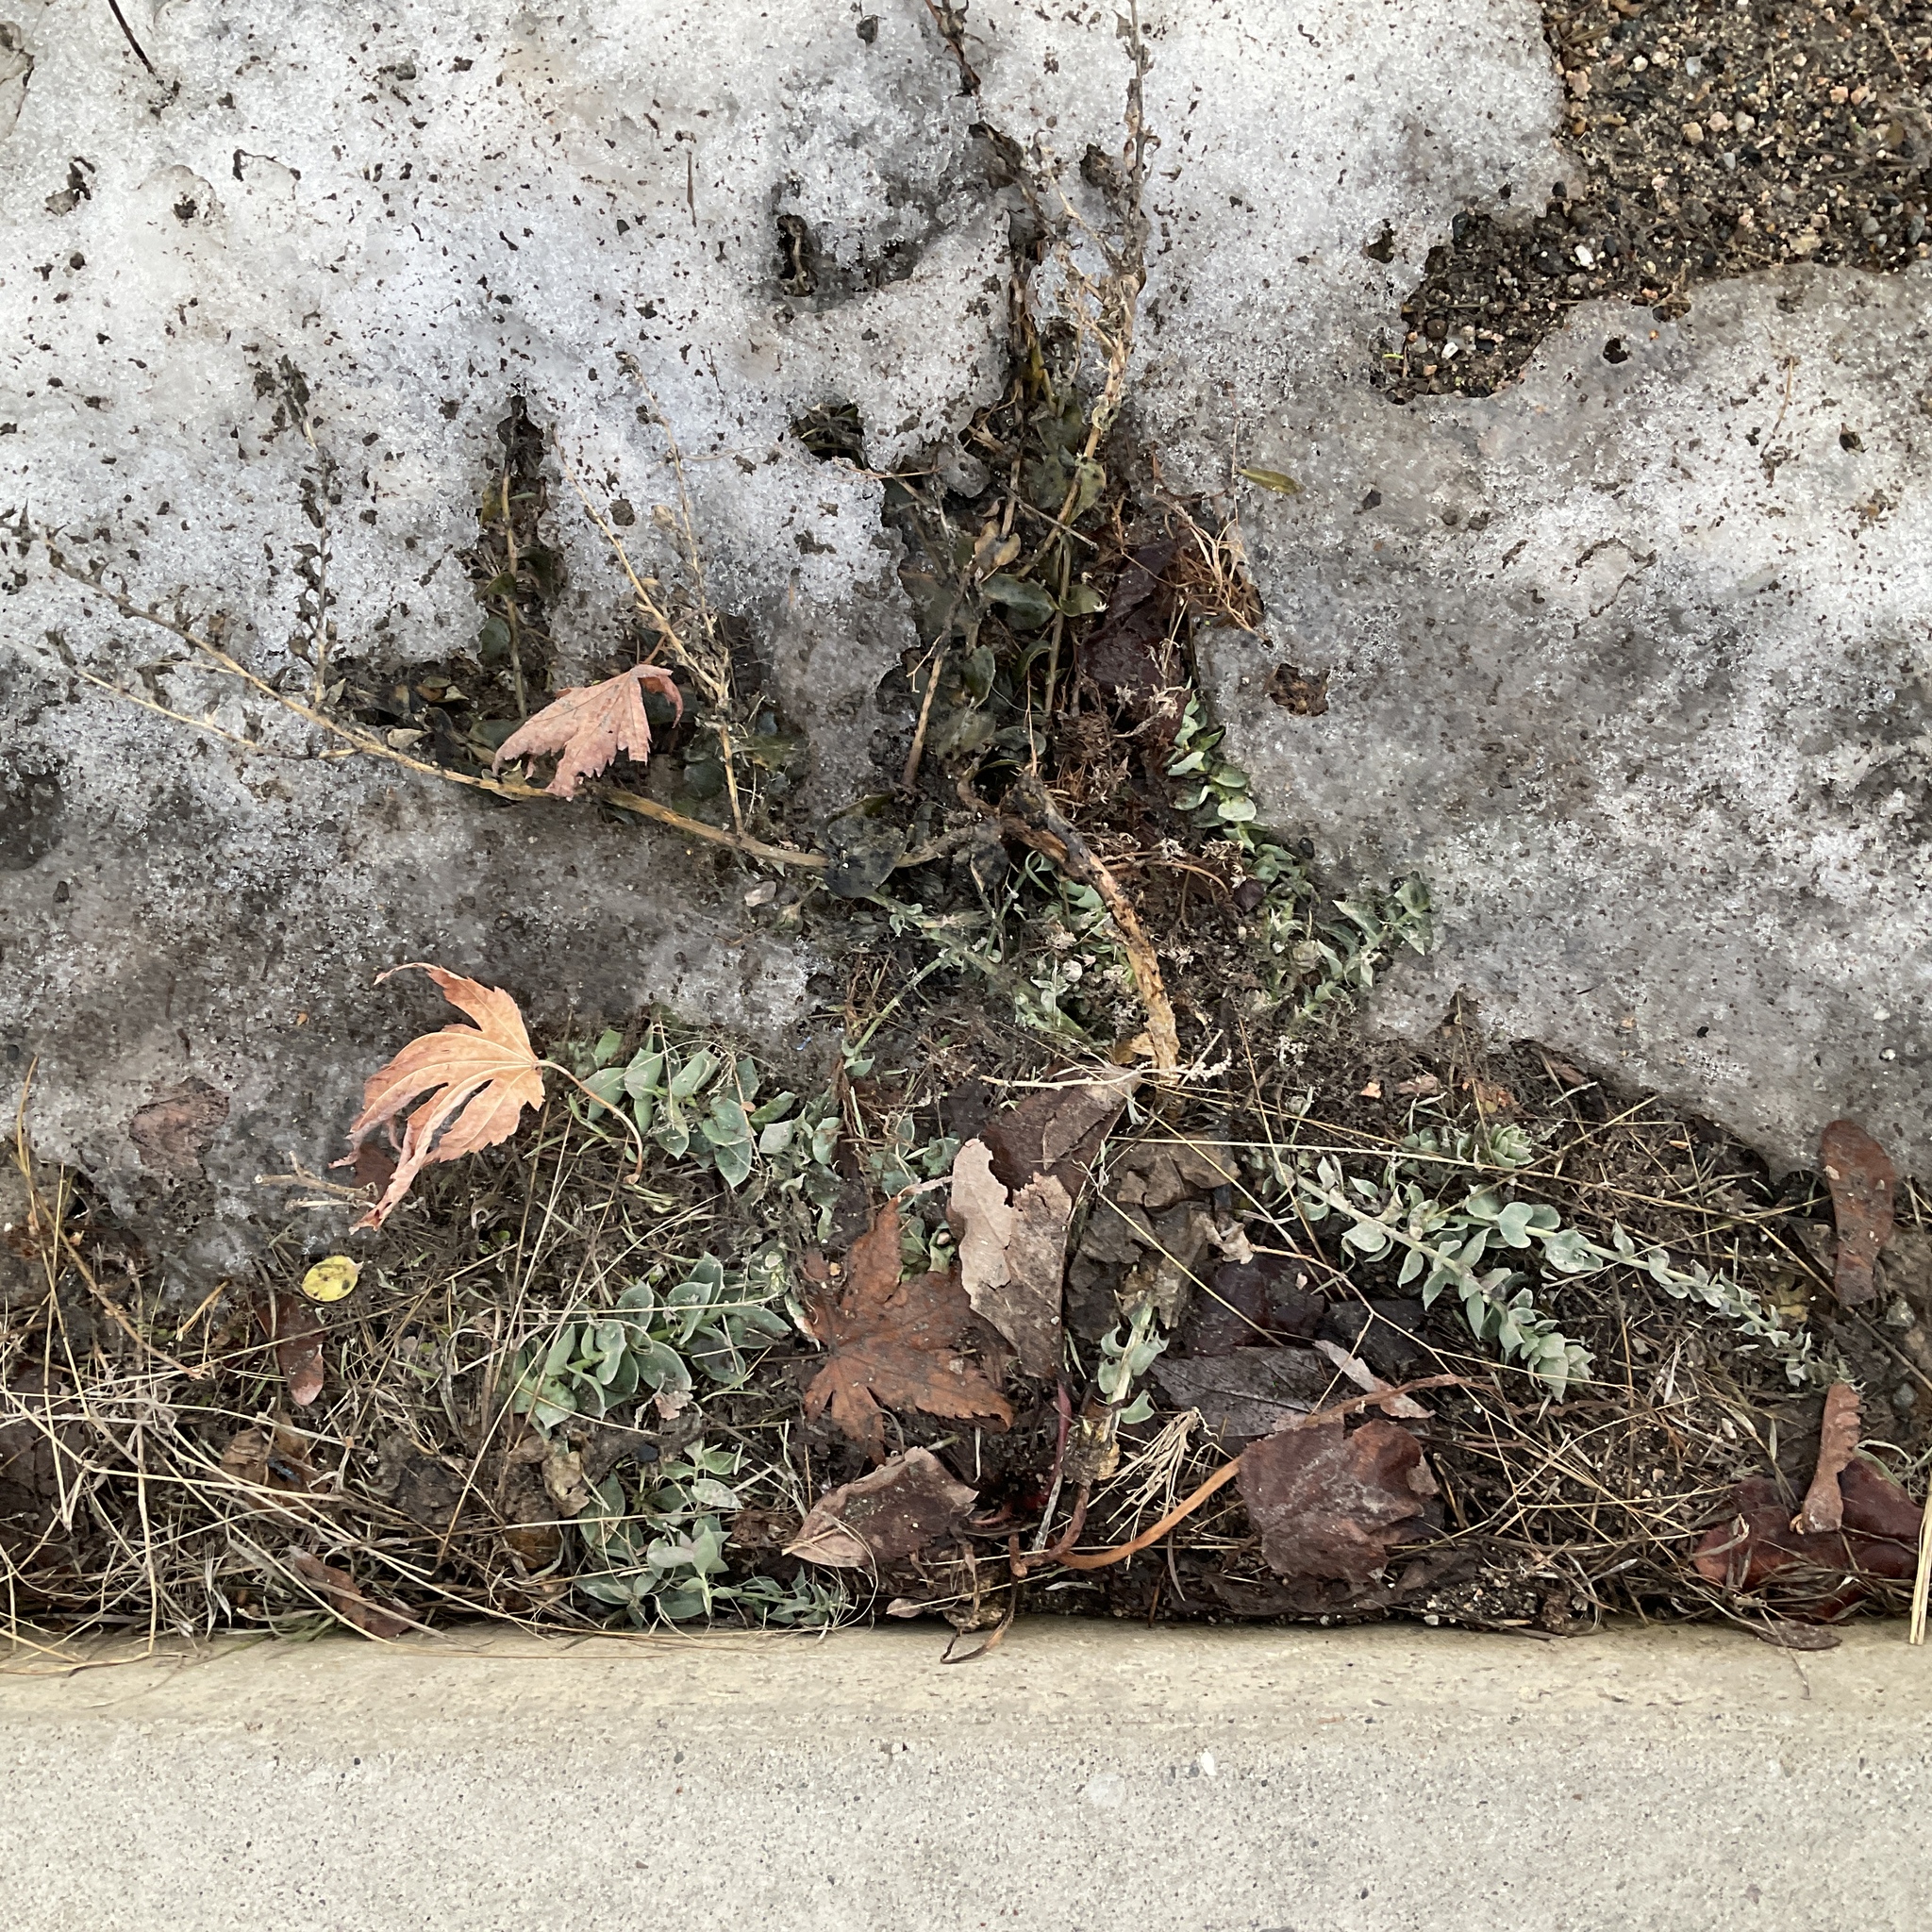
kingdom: Plantae
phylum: Tracheophyta
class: Magnoliopsida
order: Lamiales
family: Plantaginaceae
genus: Linaria
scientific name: Linaria dalmatica
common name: Dalmatian toadflax
